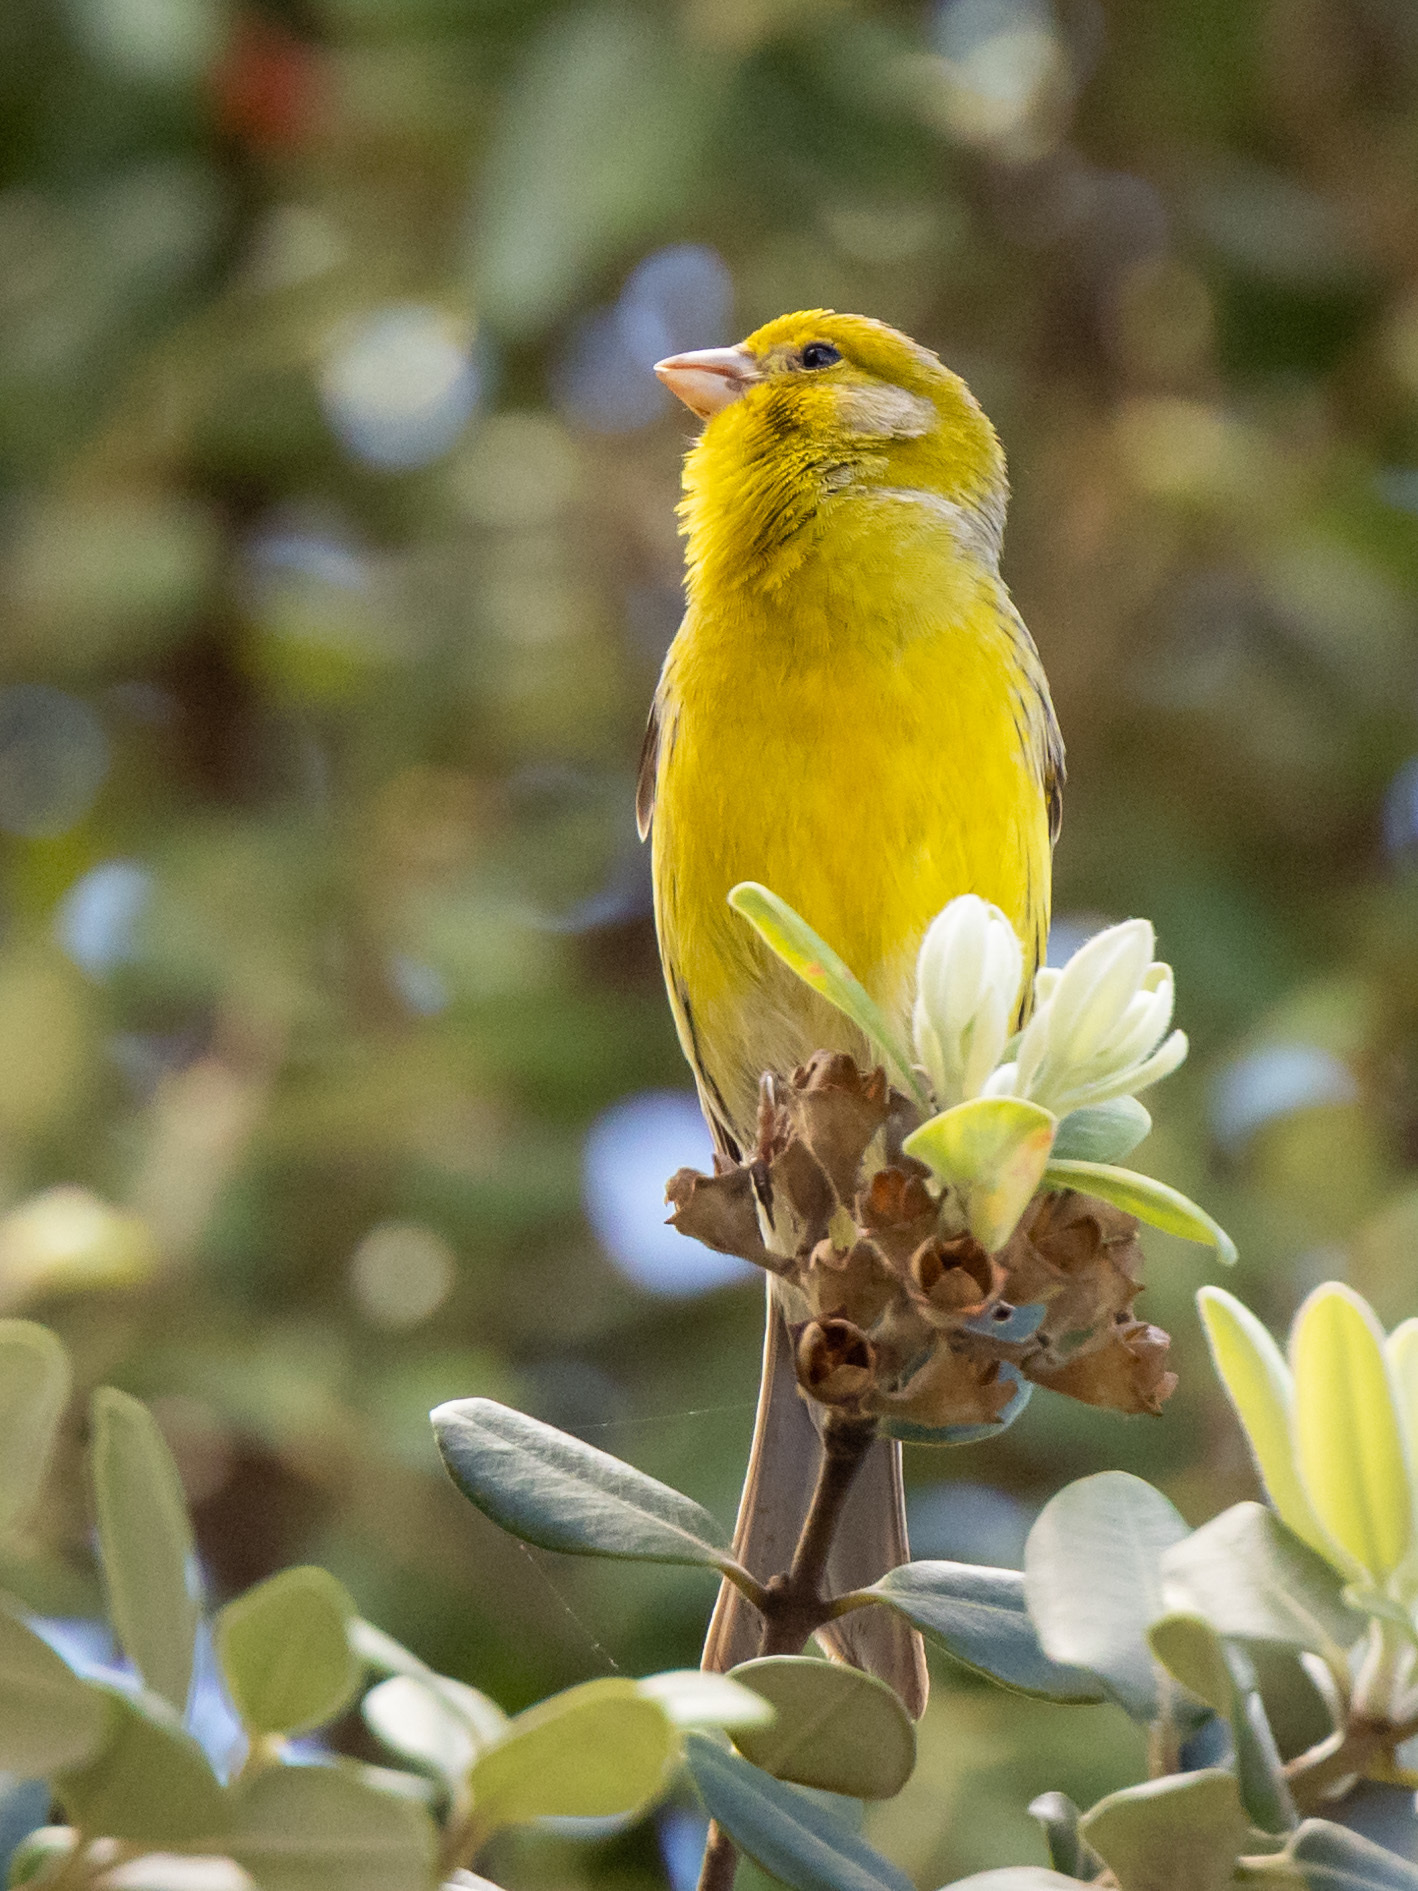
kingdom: Animalia
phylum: Chordata
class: Aves
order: Passeriformes
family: Fringillidae
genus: Serinus
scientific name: Serinus canaria
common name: Atlantic canary
